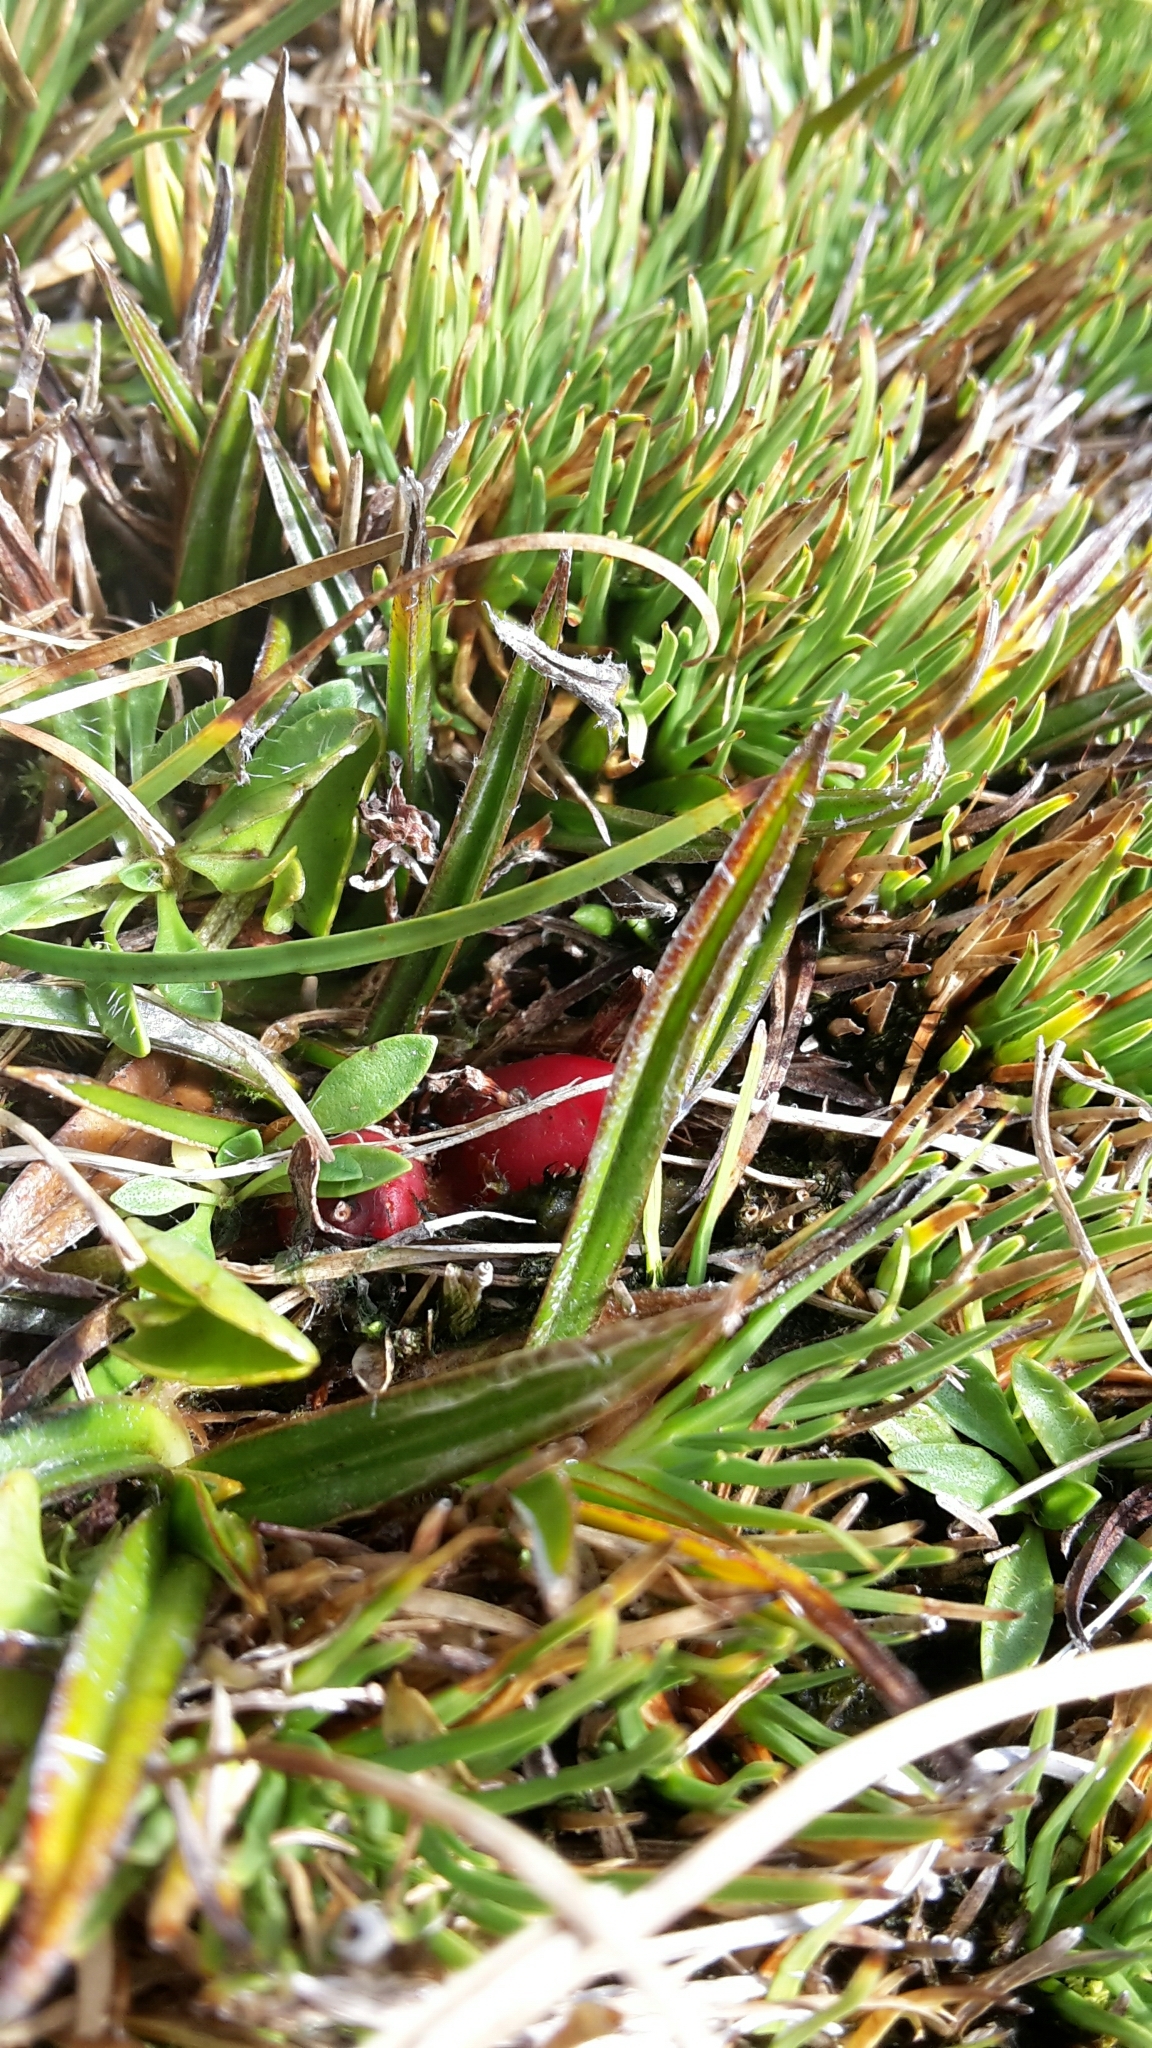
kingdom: Plantae
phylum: Tracheophyta
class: Liliopsida
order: Asparagales
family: Asteliaceae
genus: Astelia
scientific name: Astelia linearis
